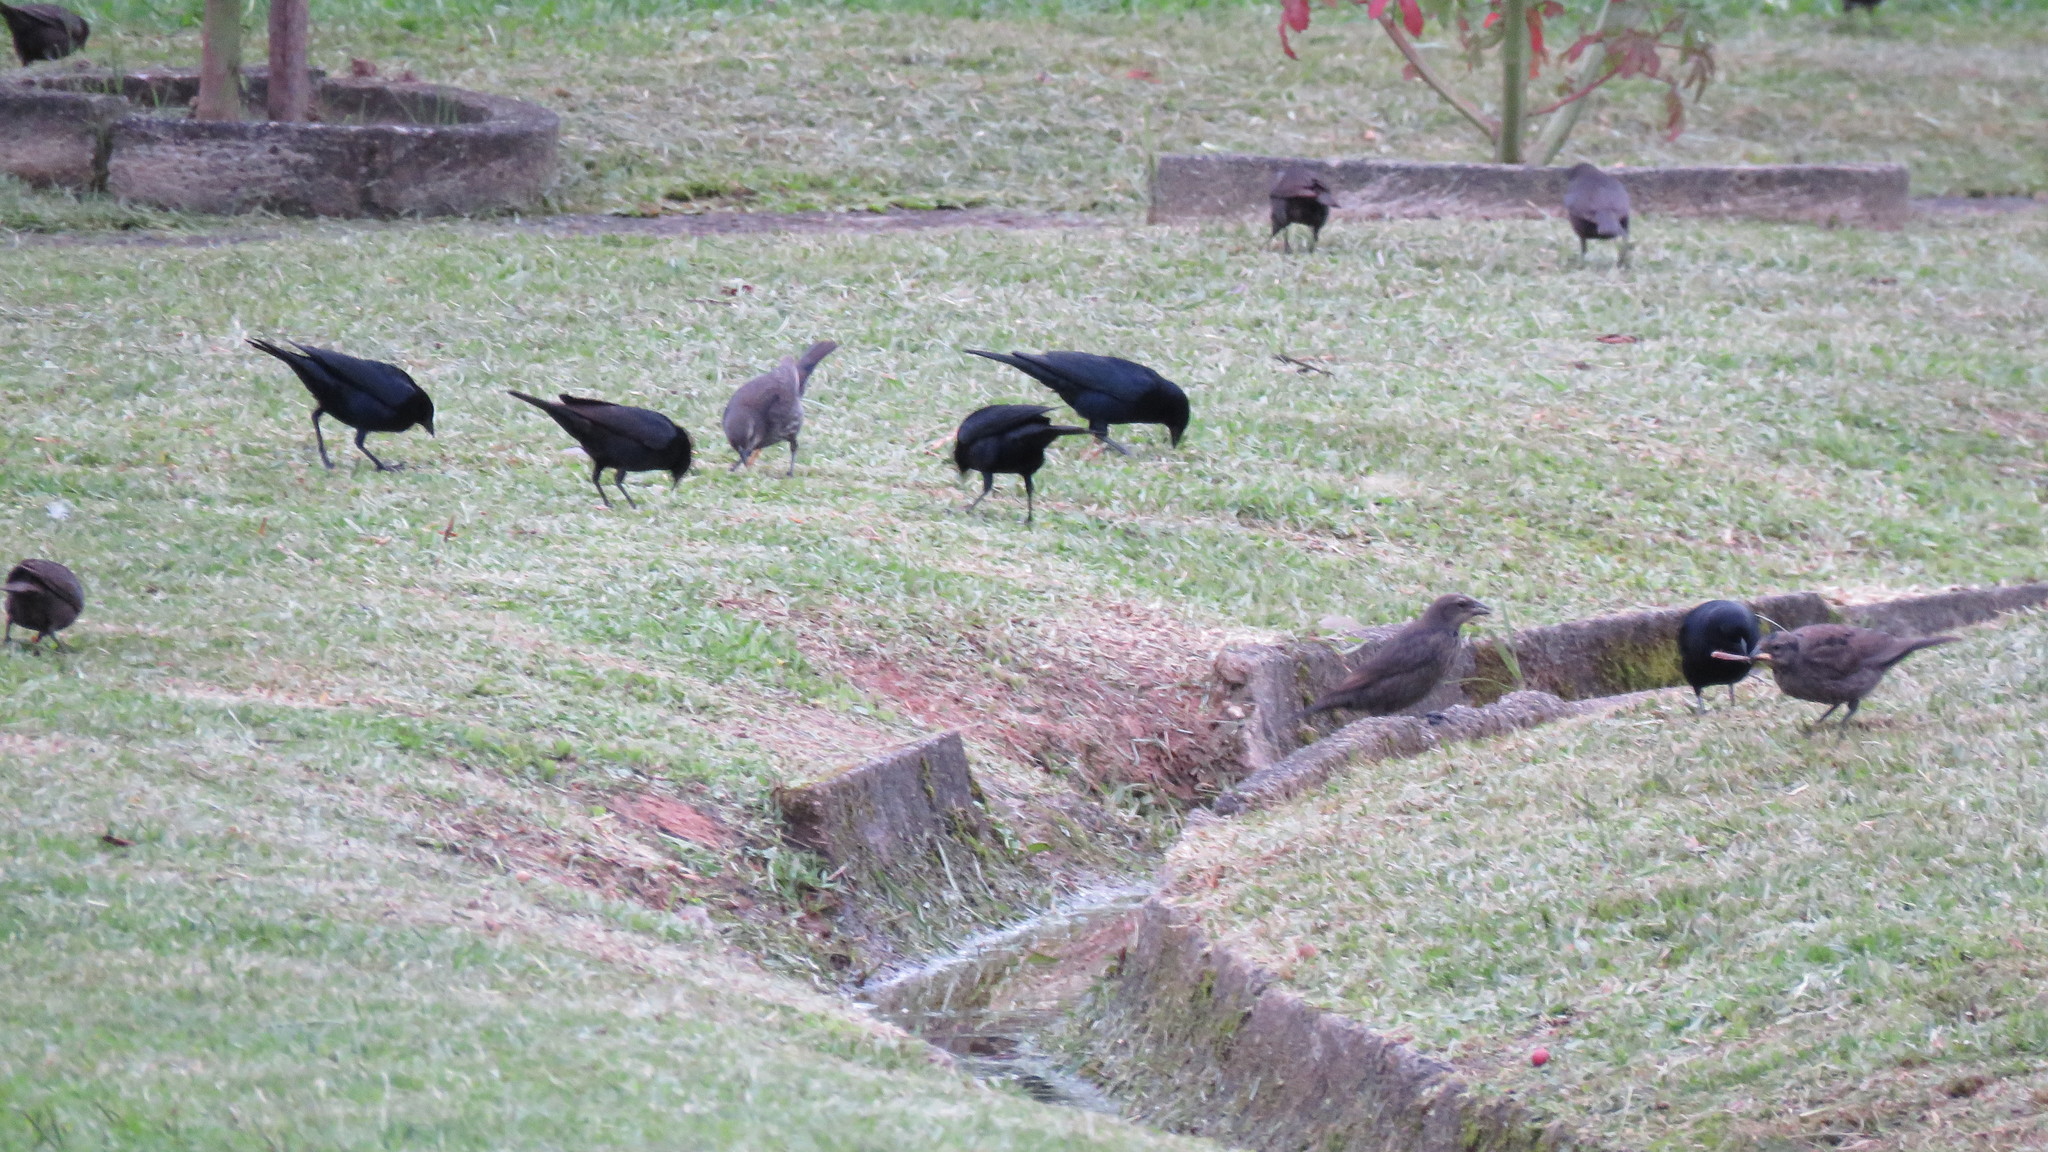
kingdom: Animalia
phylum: Chordata
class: Aves
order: Passeriformes
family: Icteridae
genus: Molothrus
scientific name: Molothrus bonariensis
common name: Shiny cowbird
